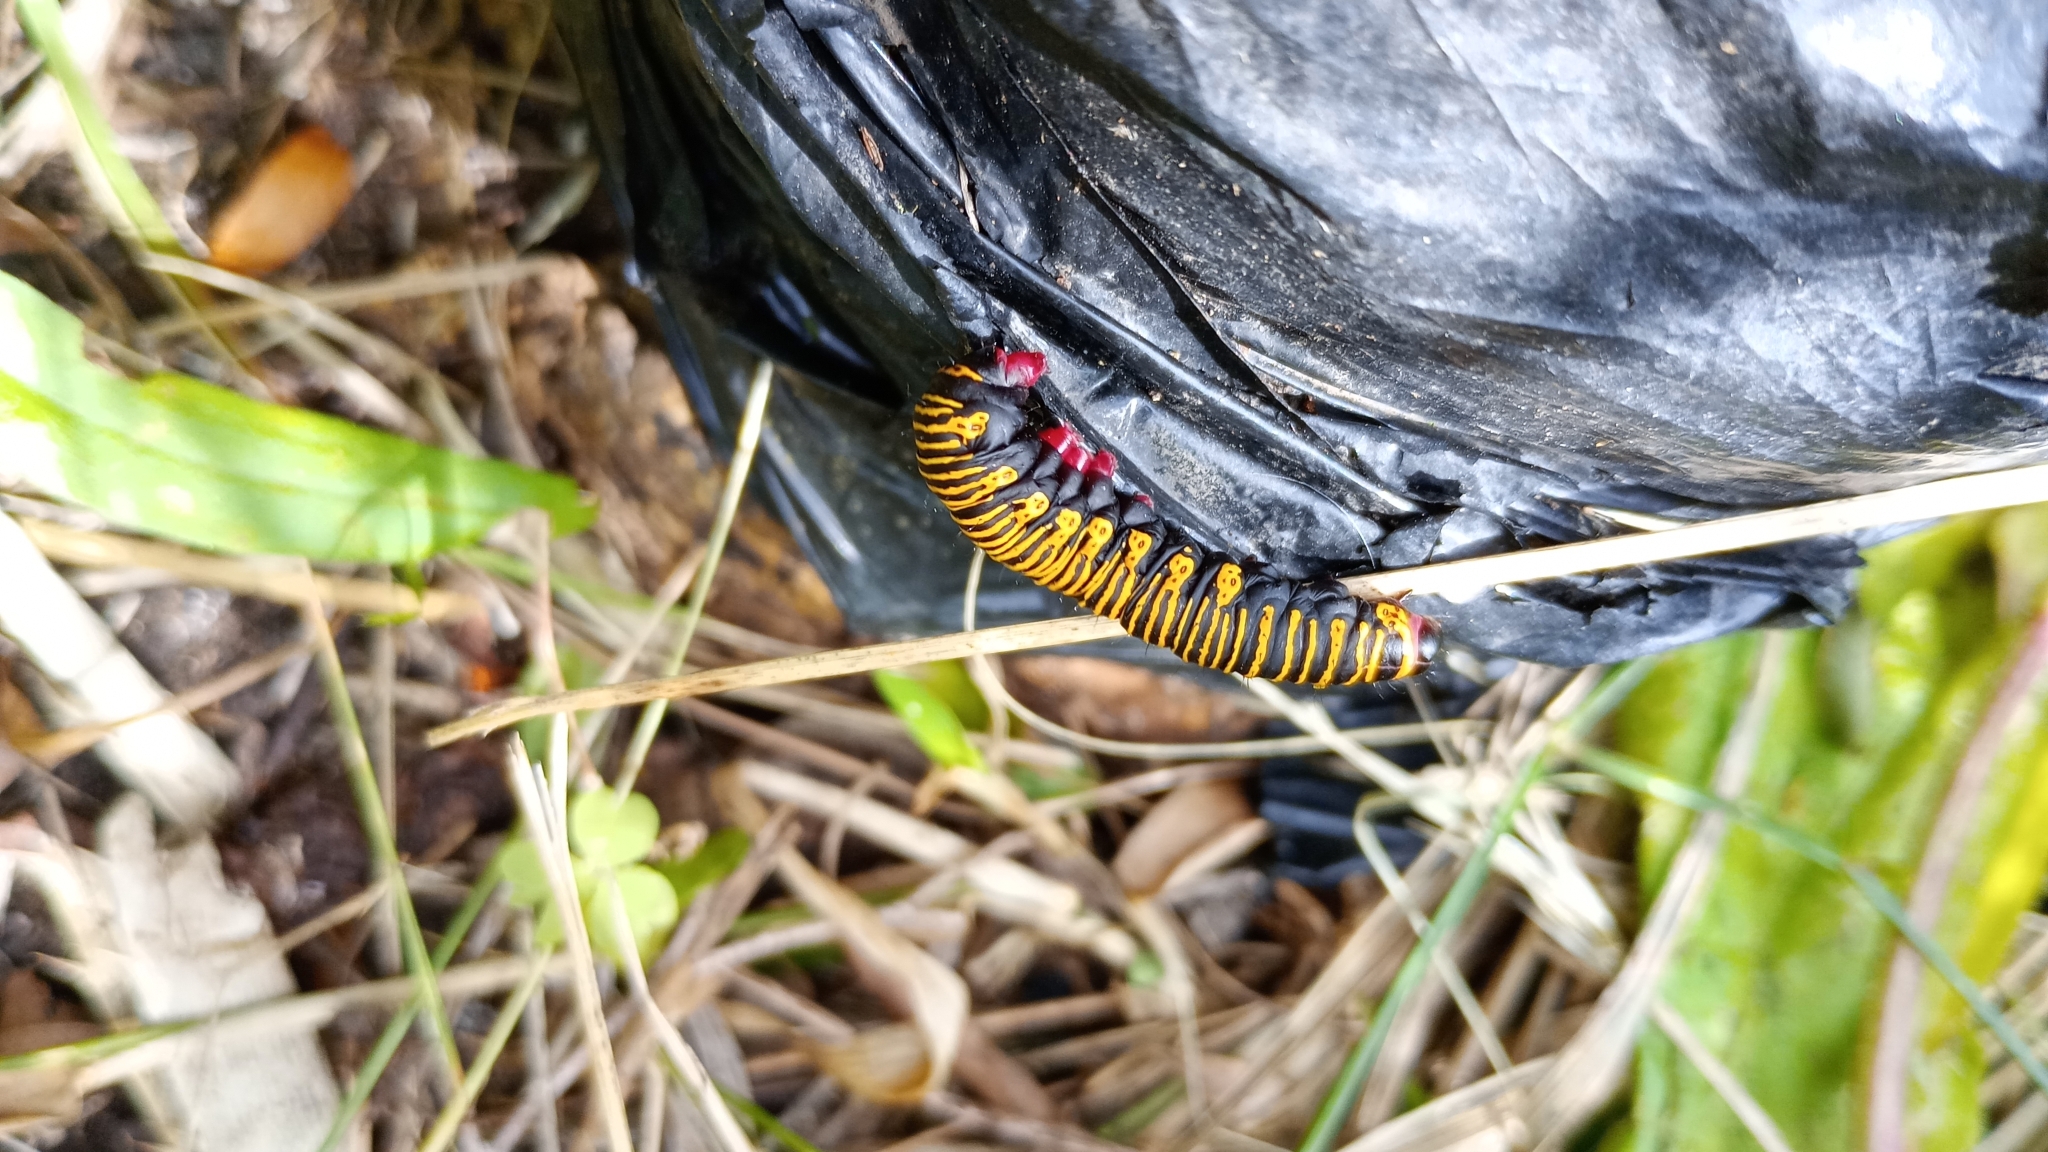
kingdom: Animalia
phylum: Arthropoda
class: Insecta
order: Lepidoptera
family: Erebidae
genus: Cabralia
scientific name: Cabralia Cromobergia teichii
